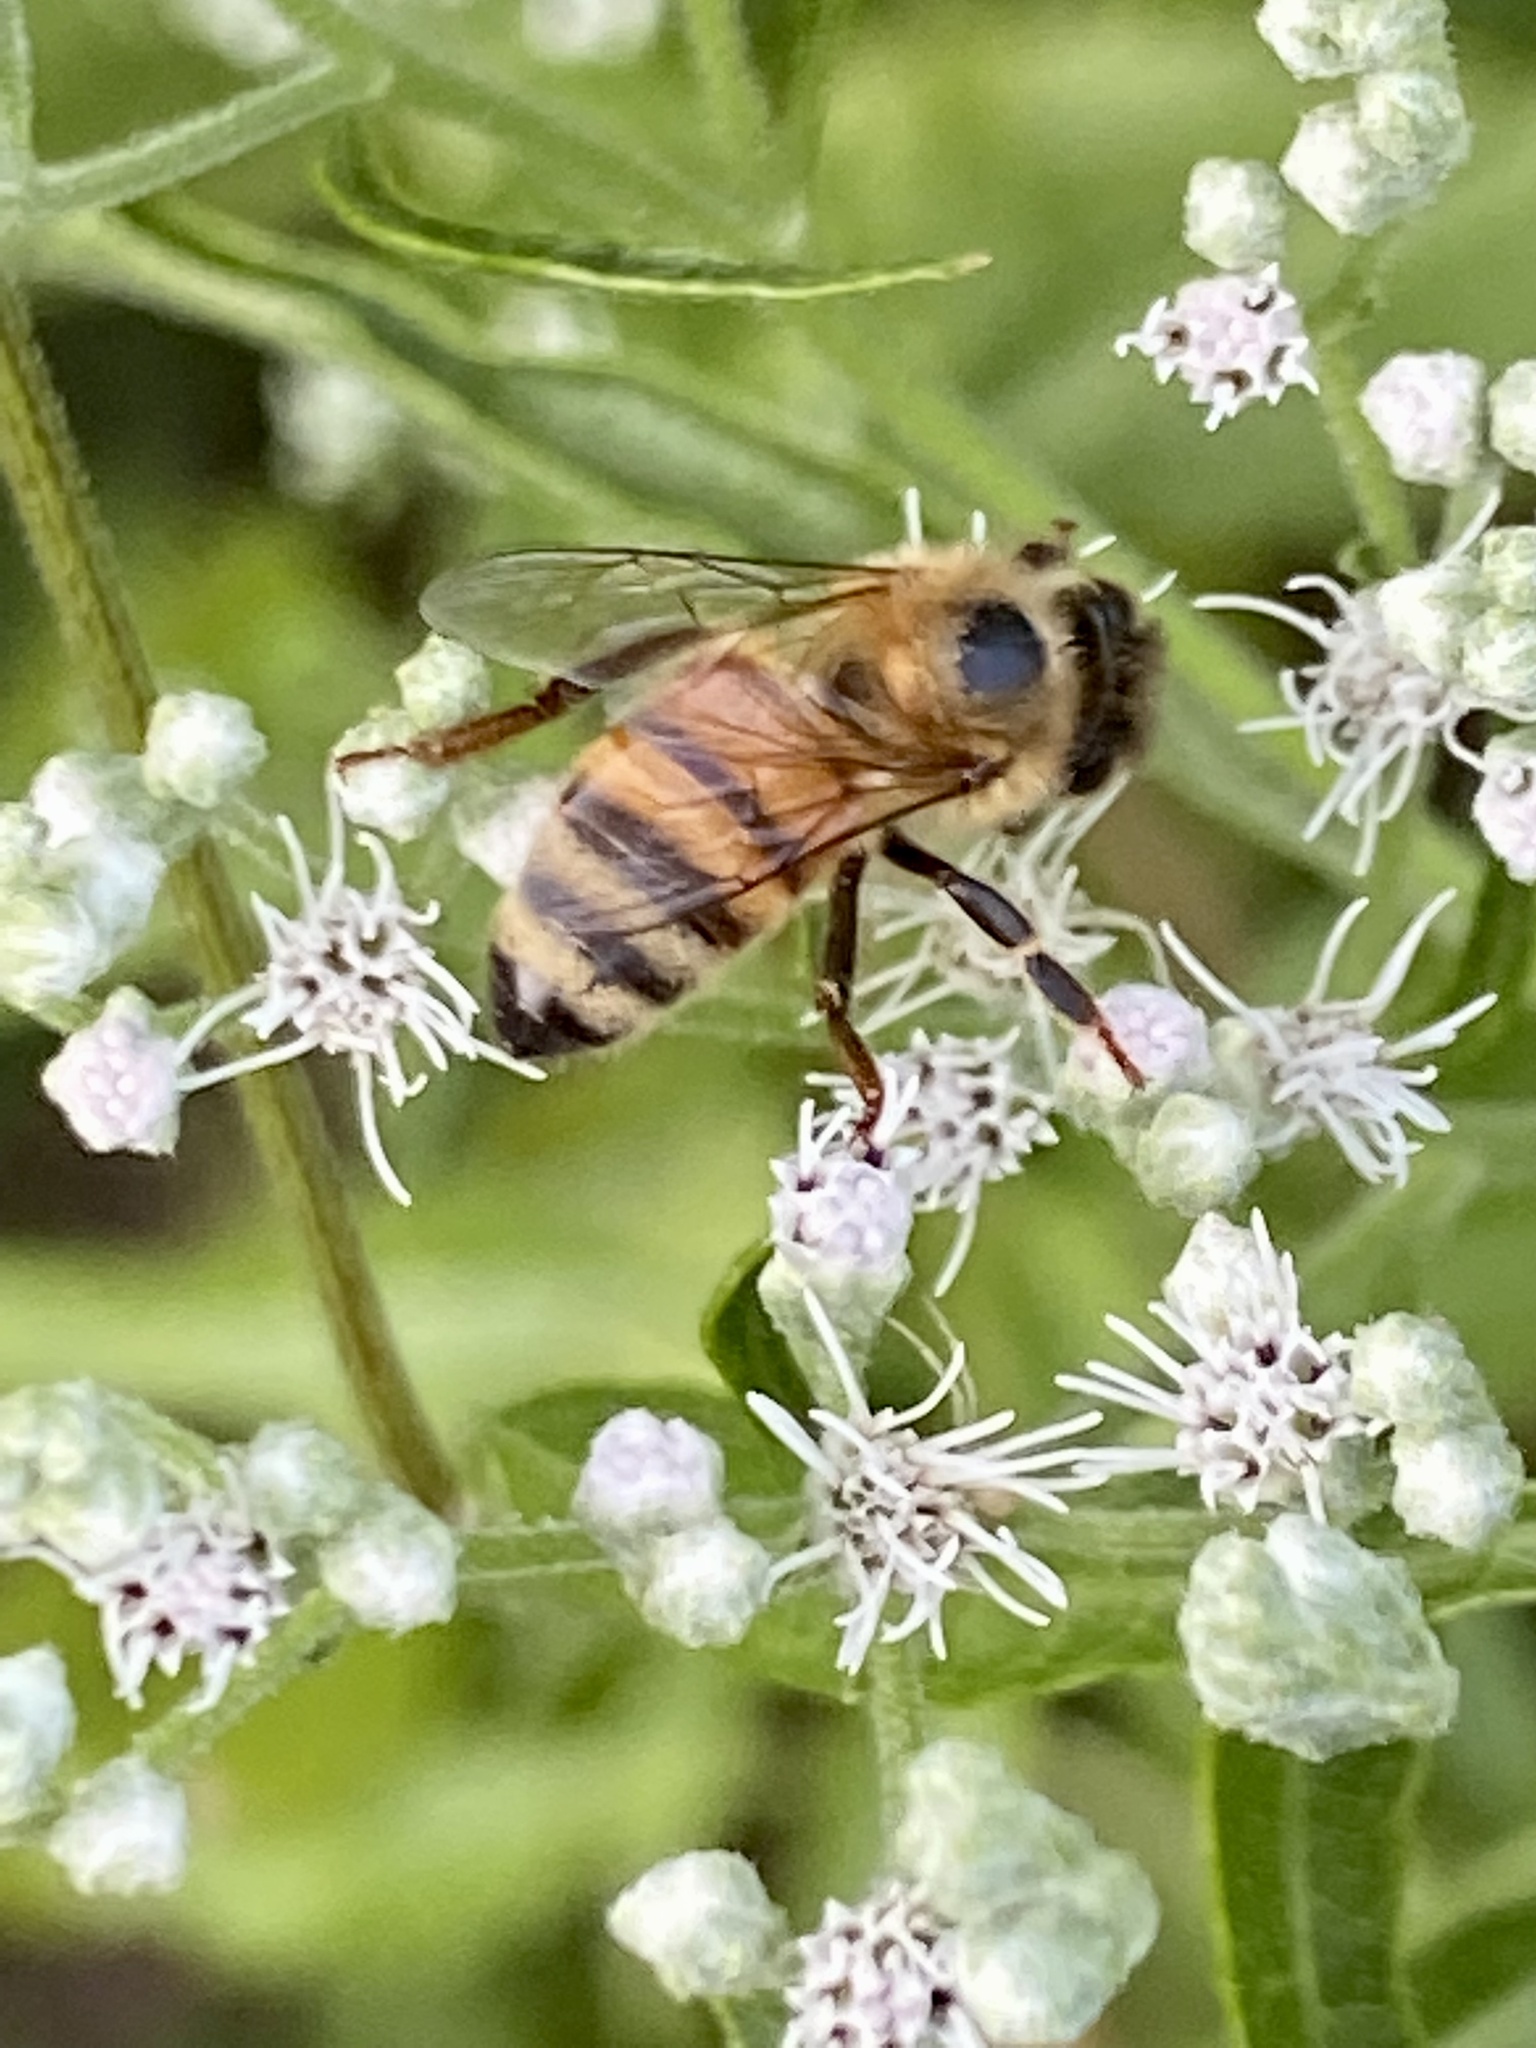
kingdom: Animalia
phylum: Arthropoda
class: Insecta
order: Hymenoptera
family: Apidae
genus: Apis
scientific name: Apis mellifera
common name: Honey bee
